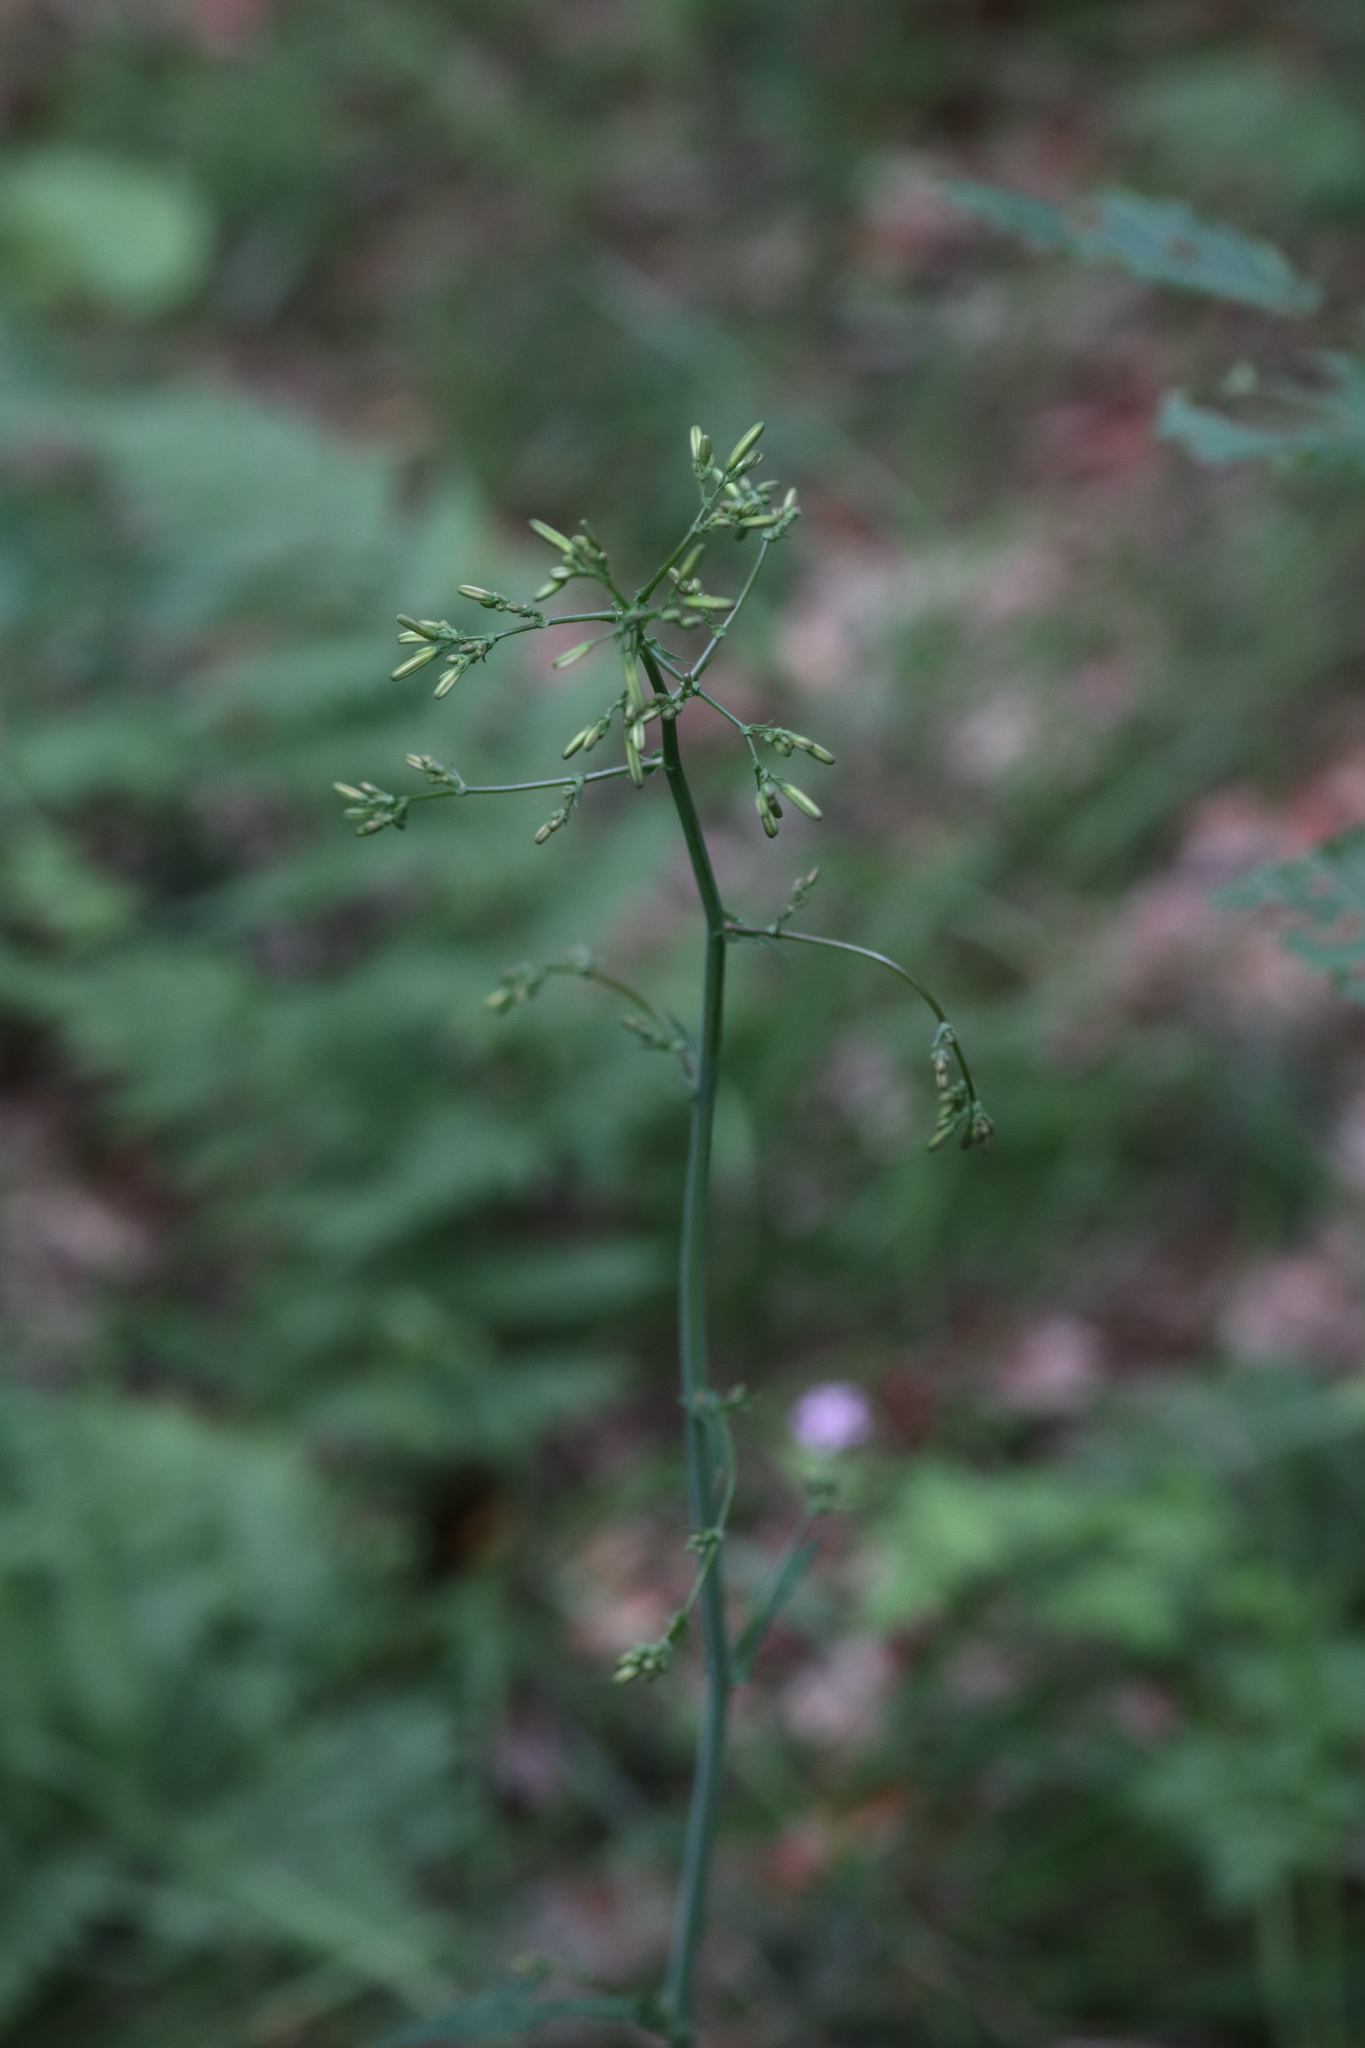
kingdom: Plantae
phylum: Tracheophyta
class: Magnoliopsida
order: Asterales
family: Asteraceae
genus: Mycelis
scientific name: Mycelis muralis
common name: Wall lettuce
